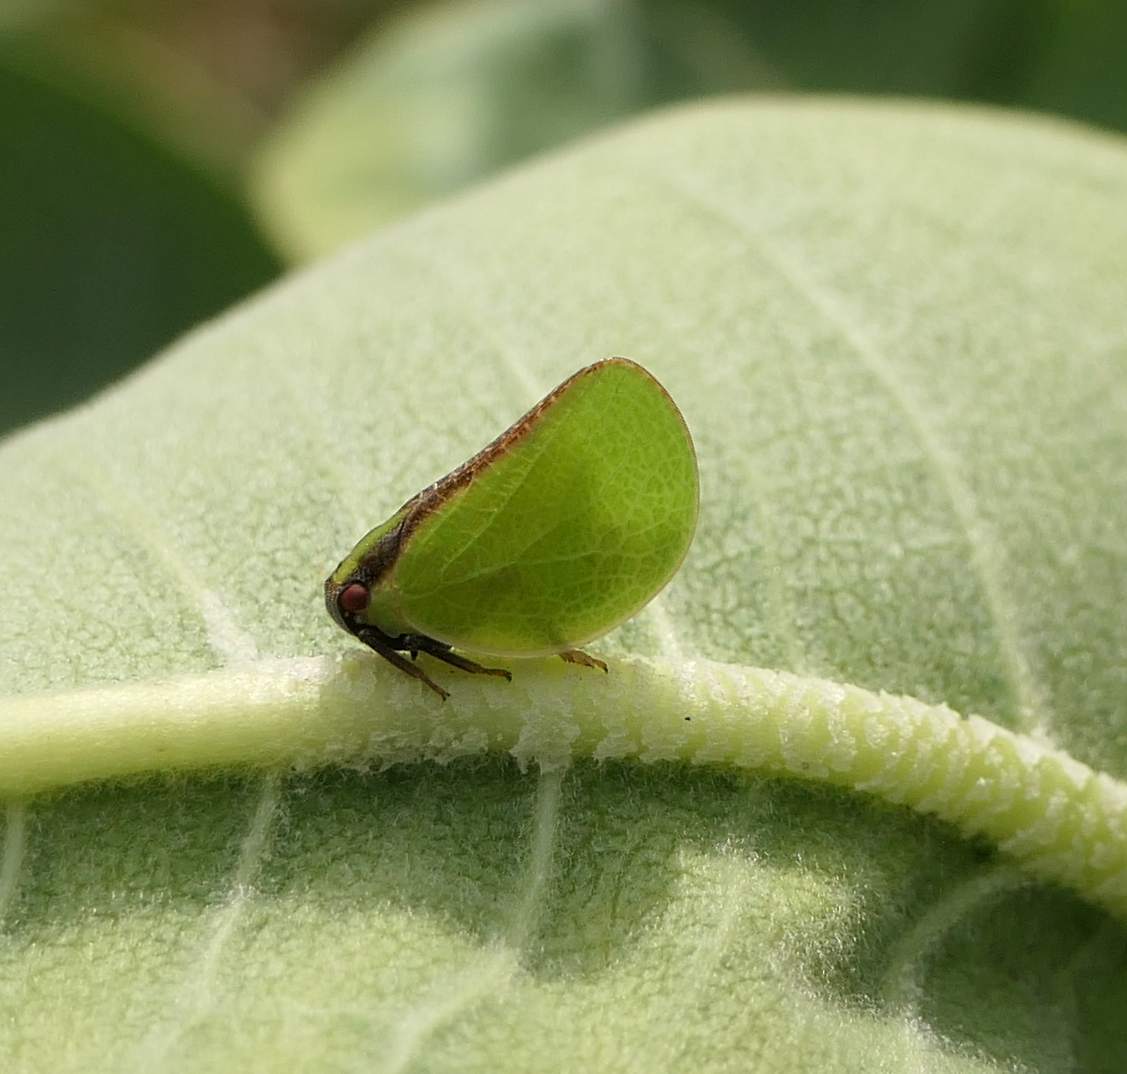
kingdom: Animalia
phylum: Arthropoda
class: Insecta
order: Hemiptera
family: Acanaloniidae
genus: Acanalonia
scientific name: Acanalonia bivittata
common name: Two-striped planthopper
